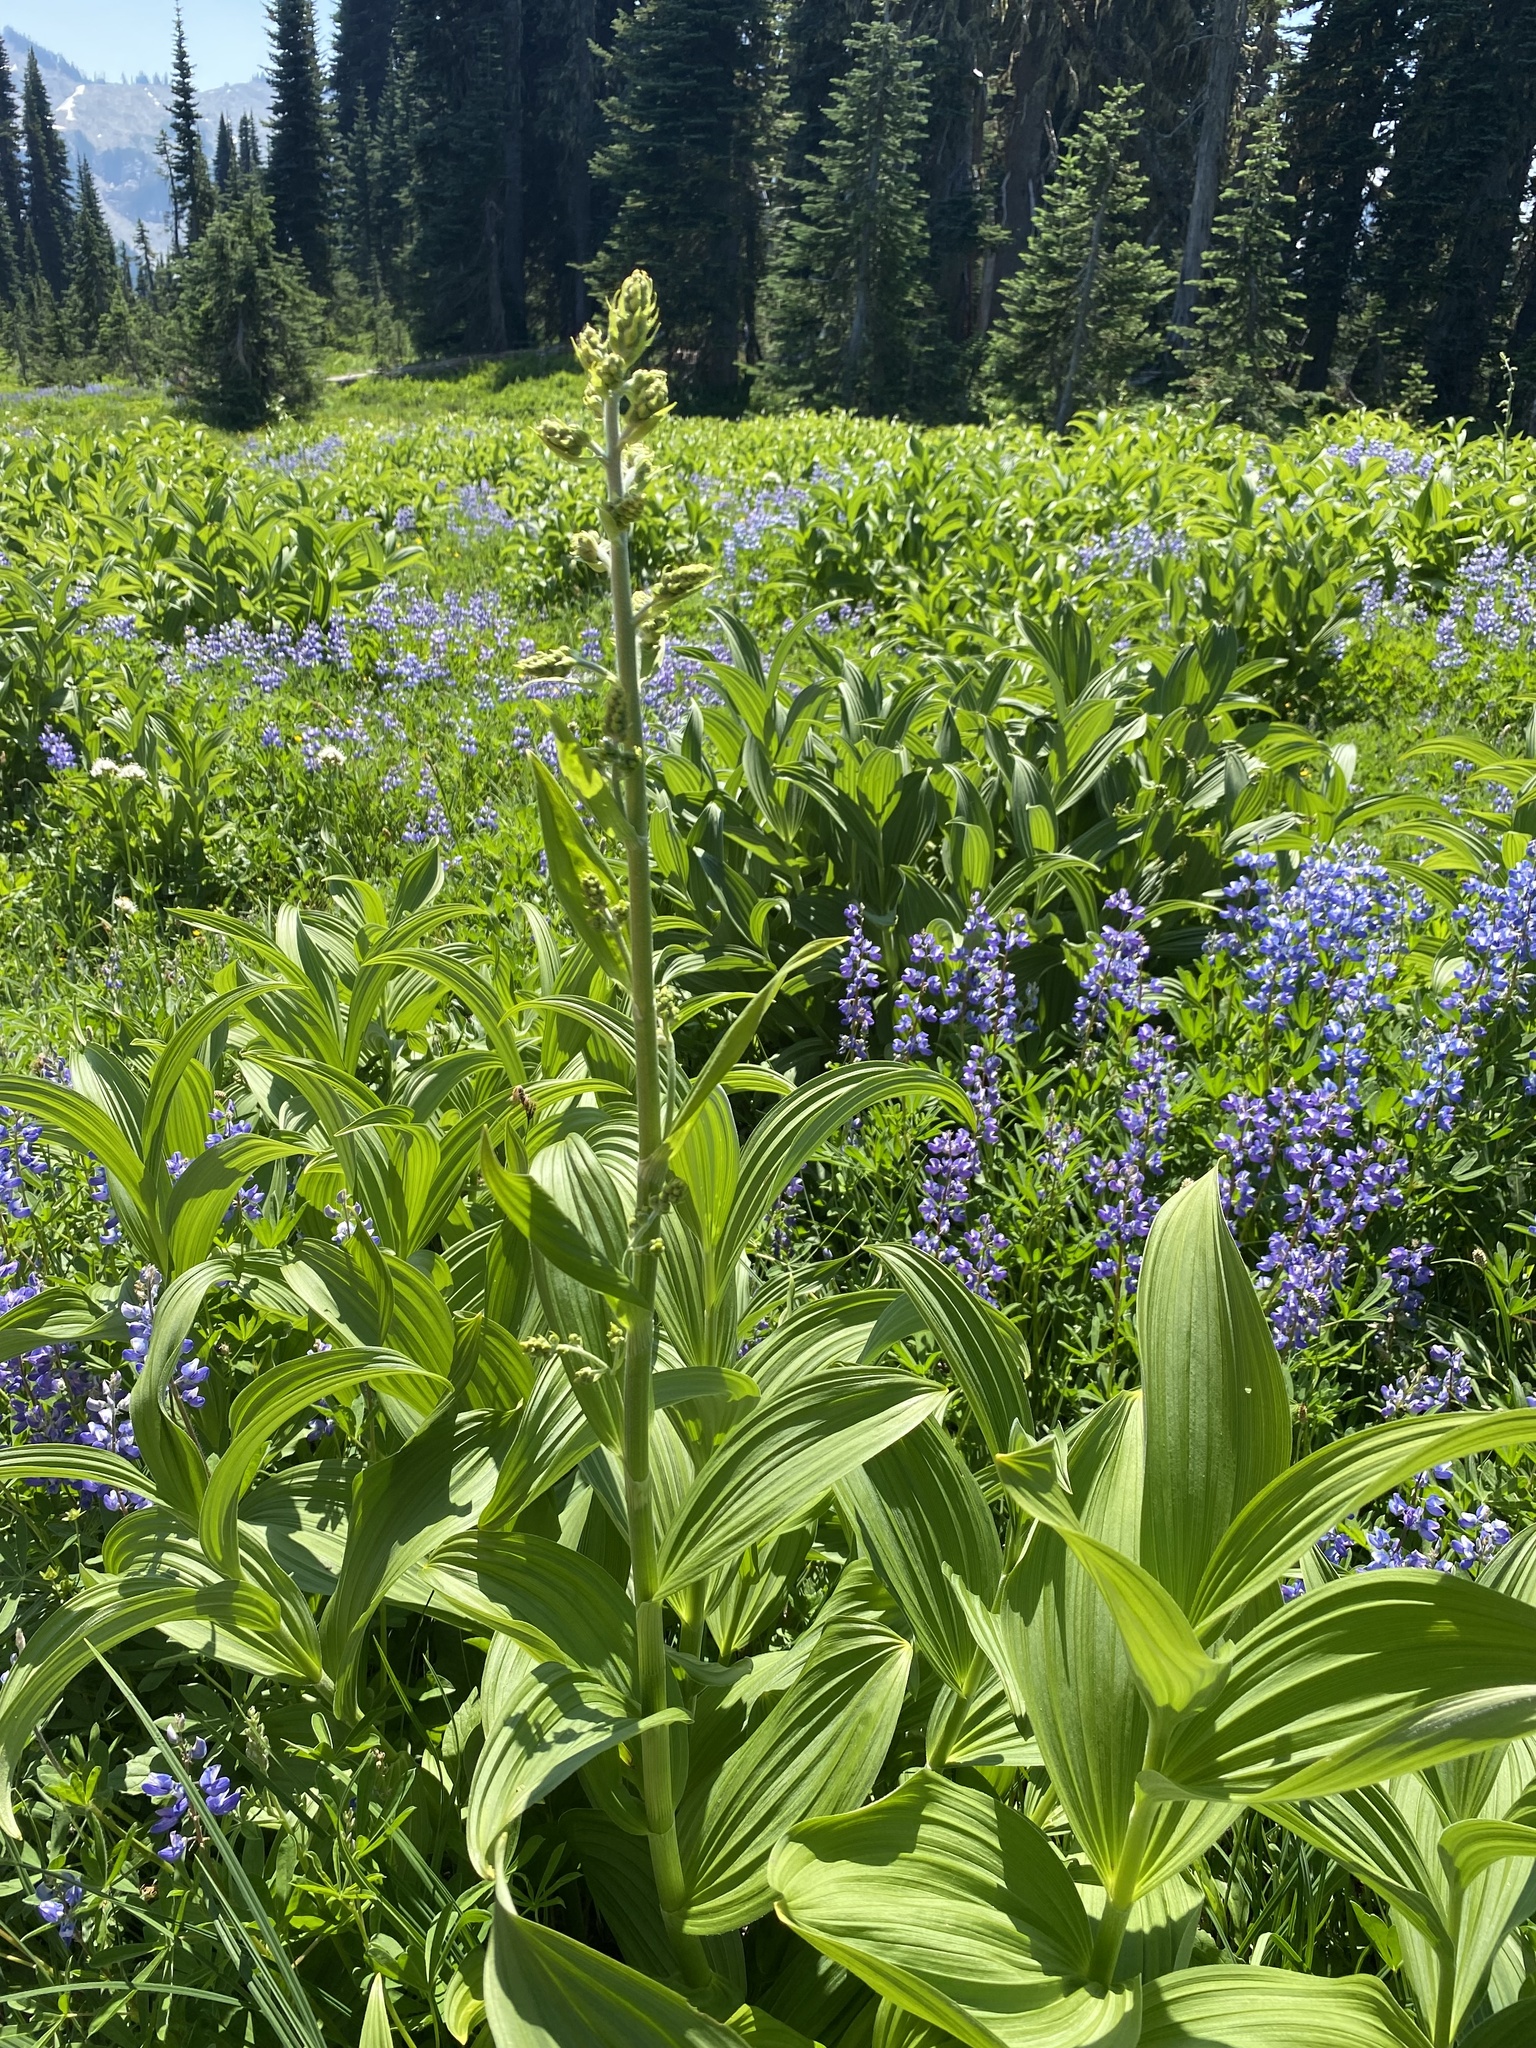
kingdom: Plantae
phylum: Tracheophyta
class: Liliopsida
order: Liliales
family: Melanthiaceae
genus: Veratrum
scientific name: Veratrum viride
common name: American false hellebore
